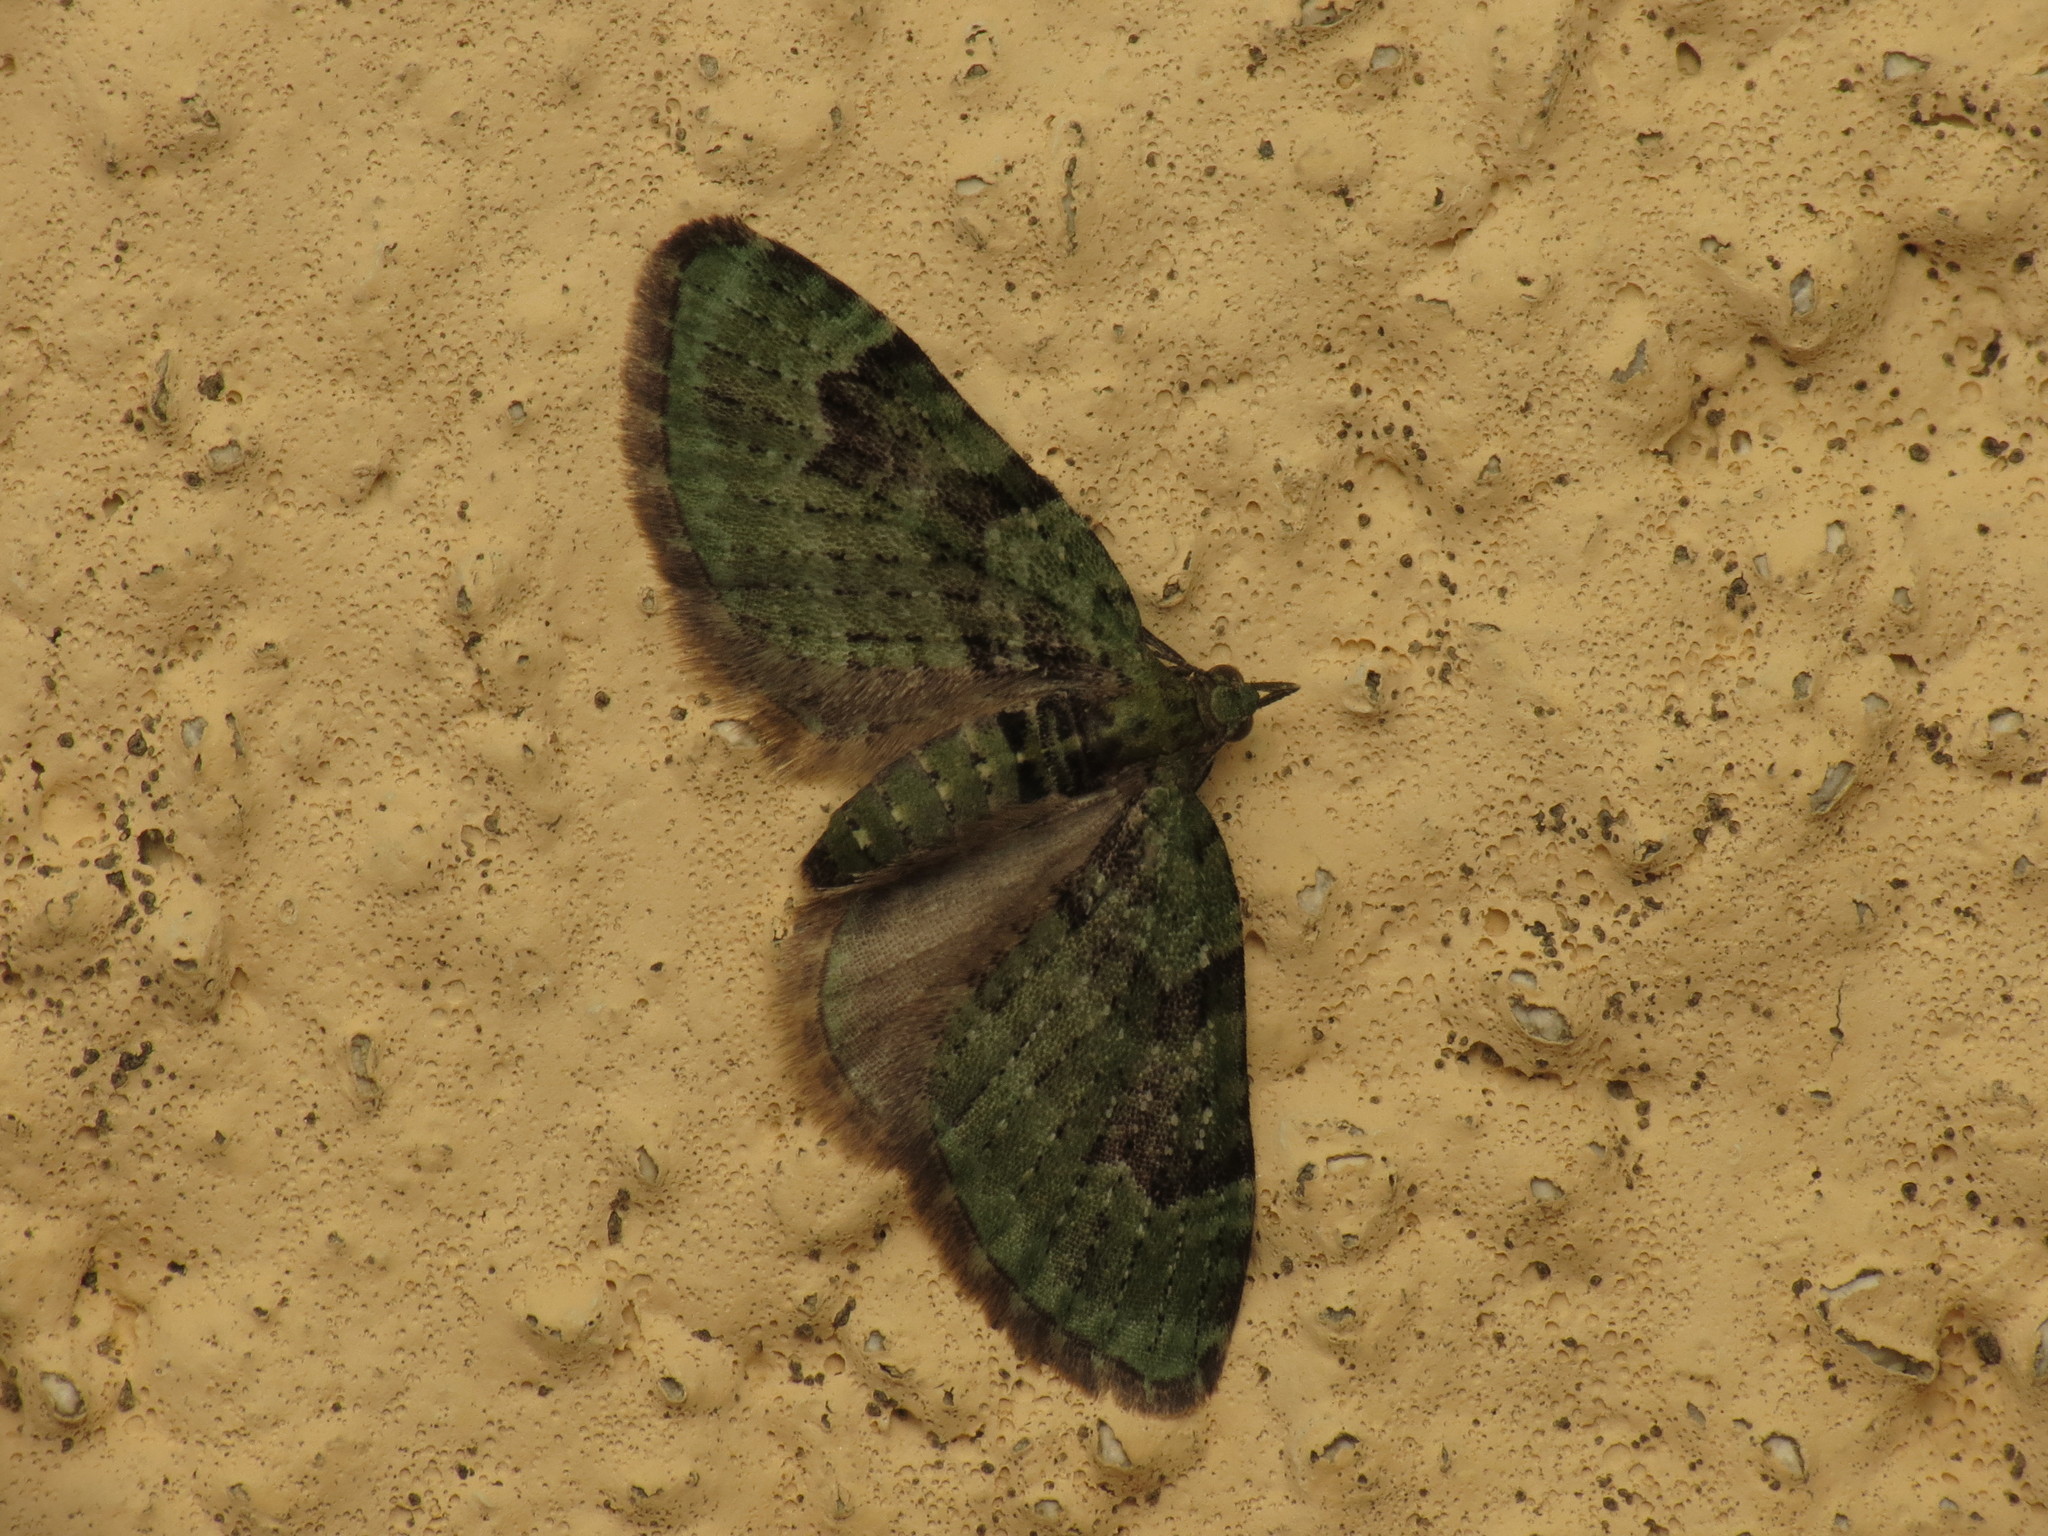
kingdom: Animalia
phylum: Arthropoda
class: Insecta
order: Lepidoptera
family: Geometridae
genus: Chloroclystis
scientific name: Chloroclystis v-ata
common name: V-pug
